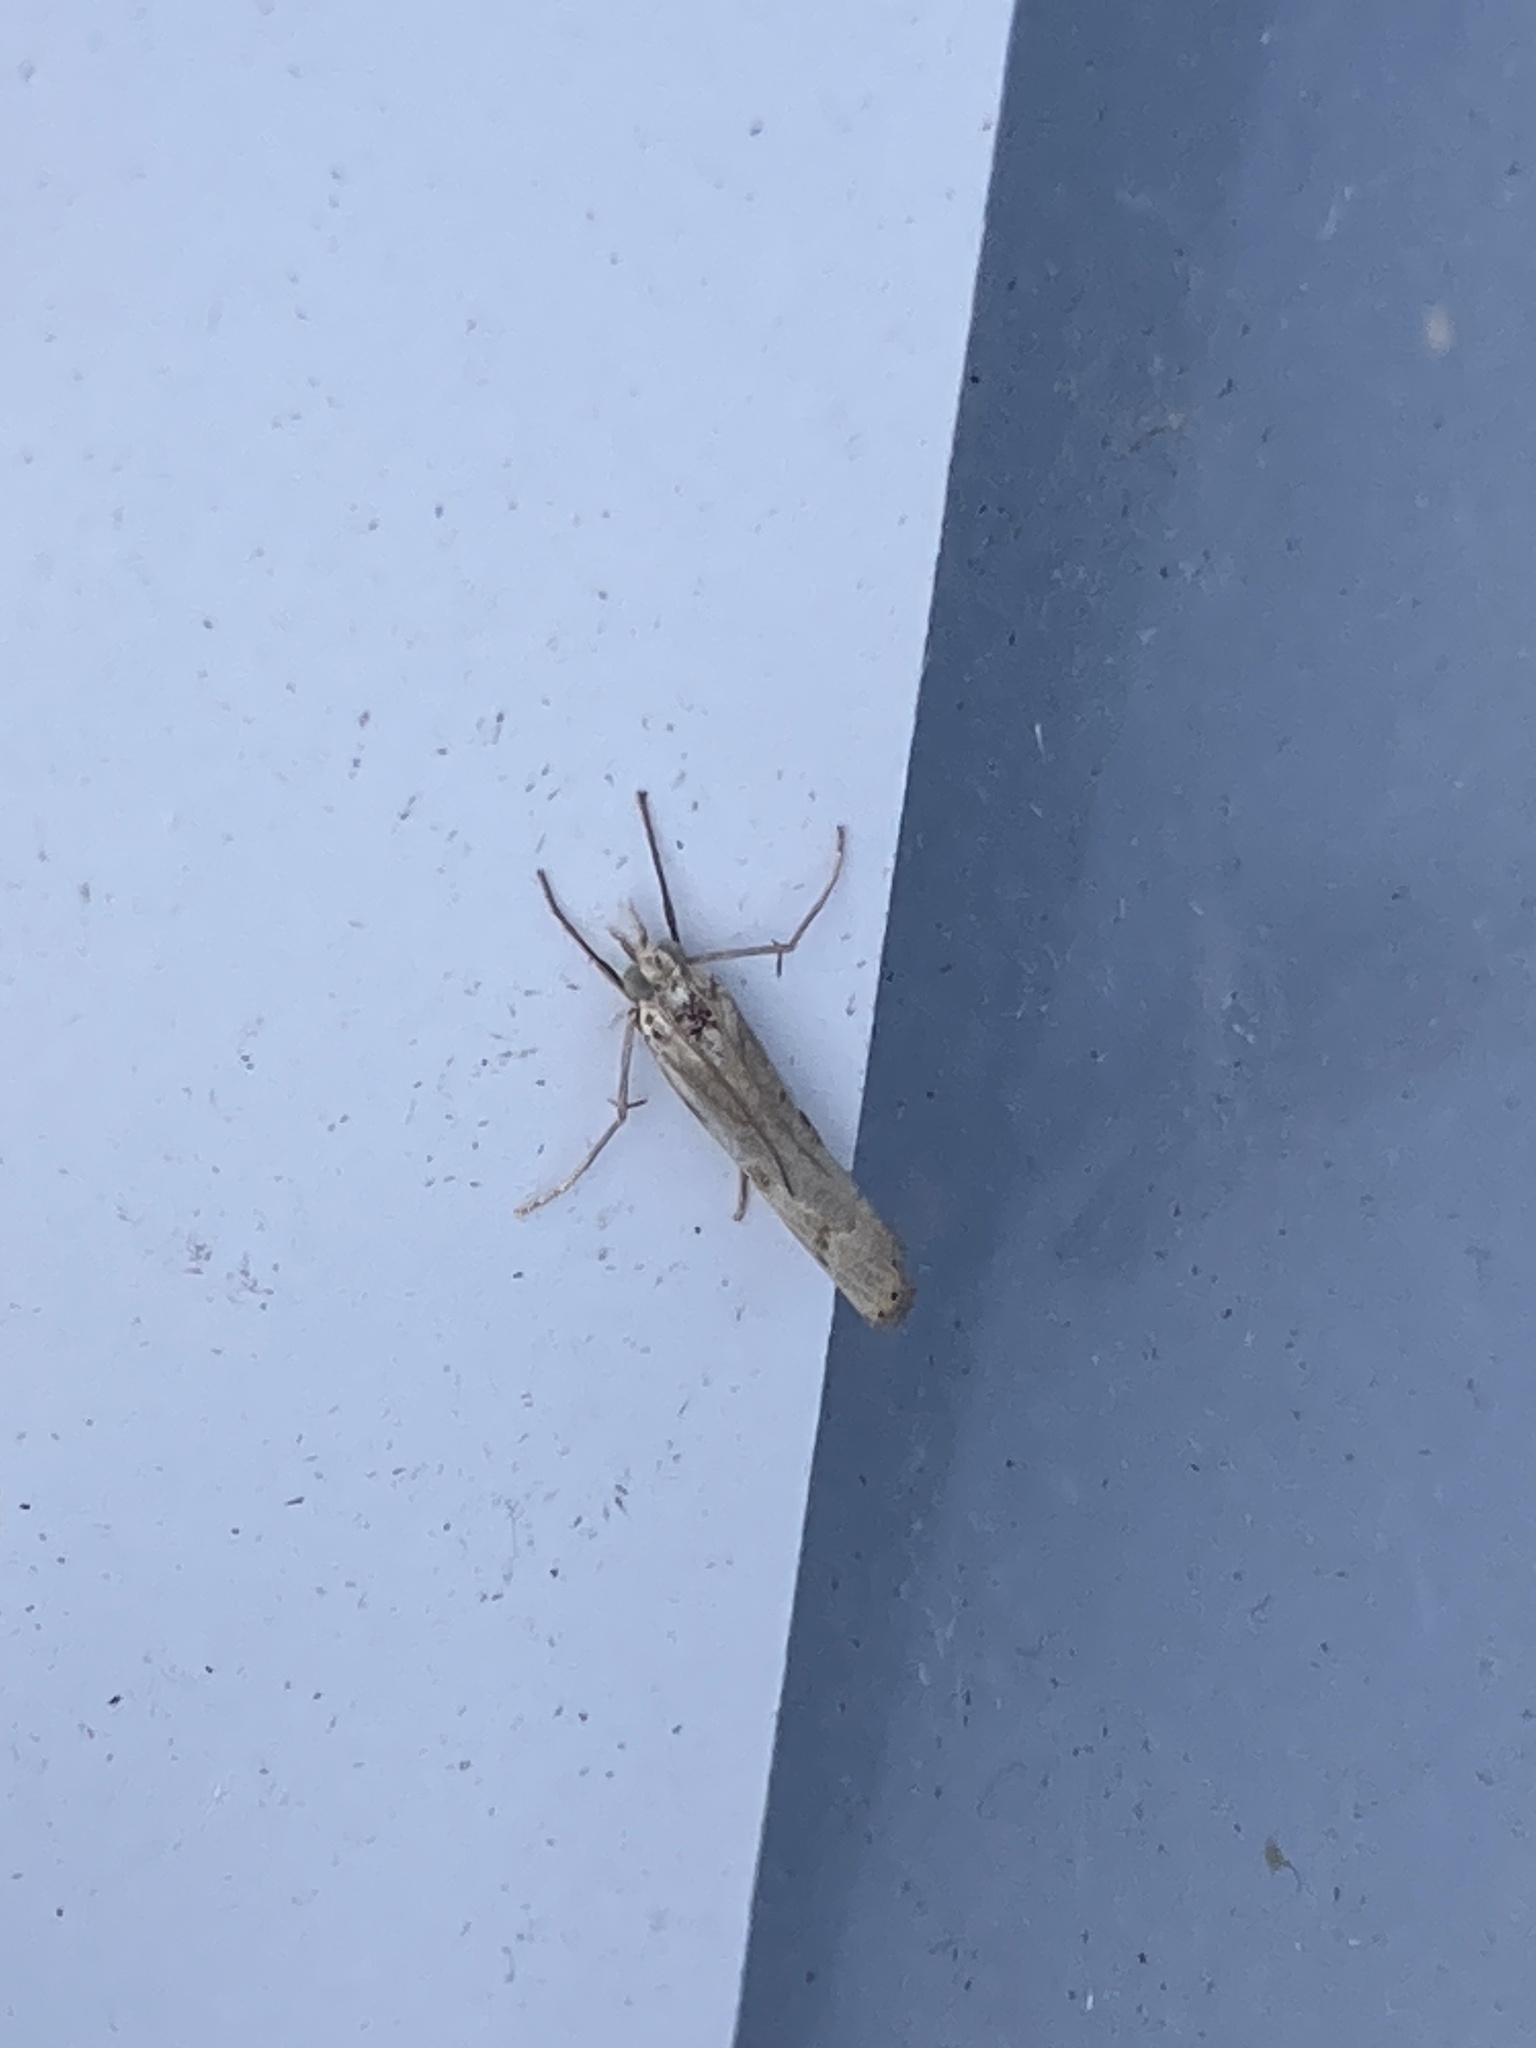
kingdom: Animalia
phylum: Arthropoda
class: Insecta
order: Lepidoptera
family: Crambidae
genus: Agriphila
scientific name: Agriphila geniculea
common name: Elbow-stripe grass-veneer
